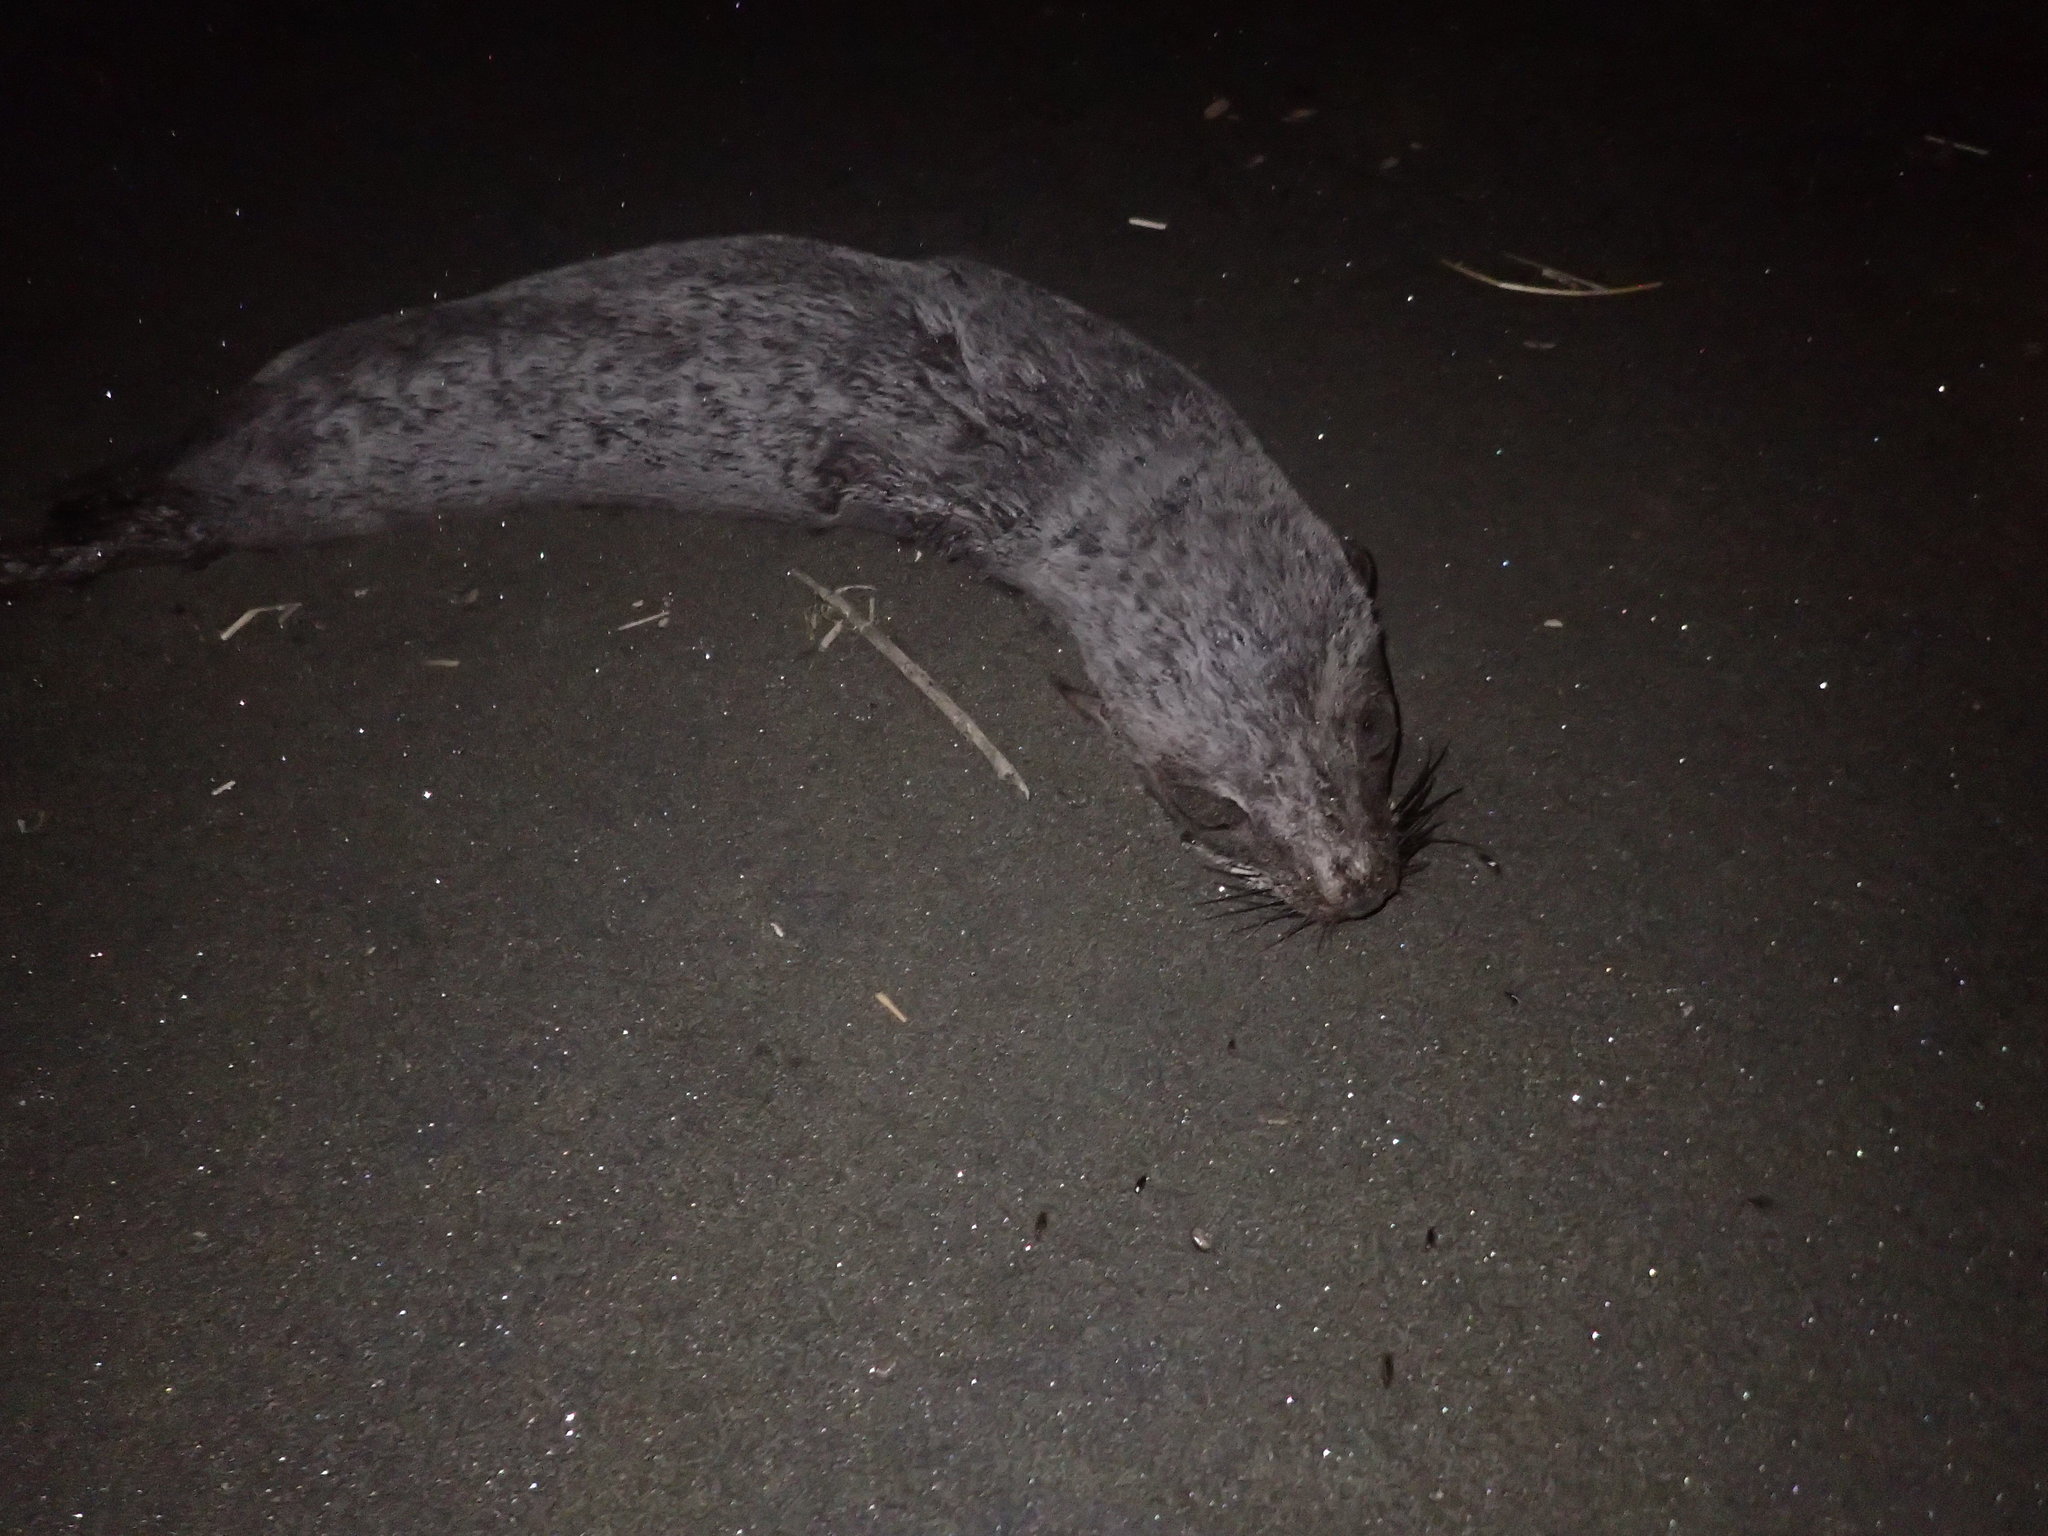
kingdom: Animalia
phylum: Chordata
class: Mammalia
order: Carnivora
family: Otariidae
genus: Arctocephalus
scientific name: Arctocephalus forsteri
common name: New zealand fur seal
